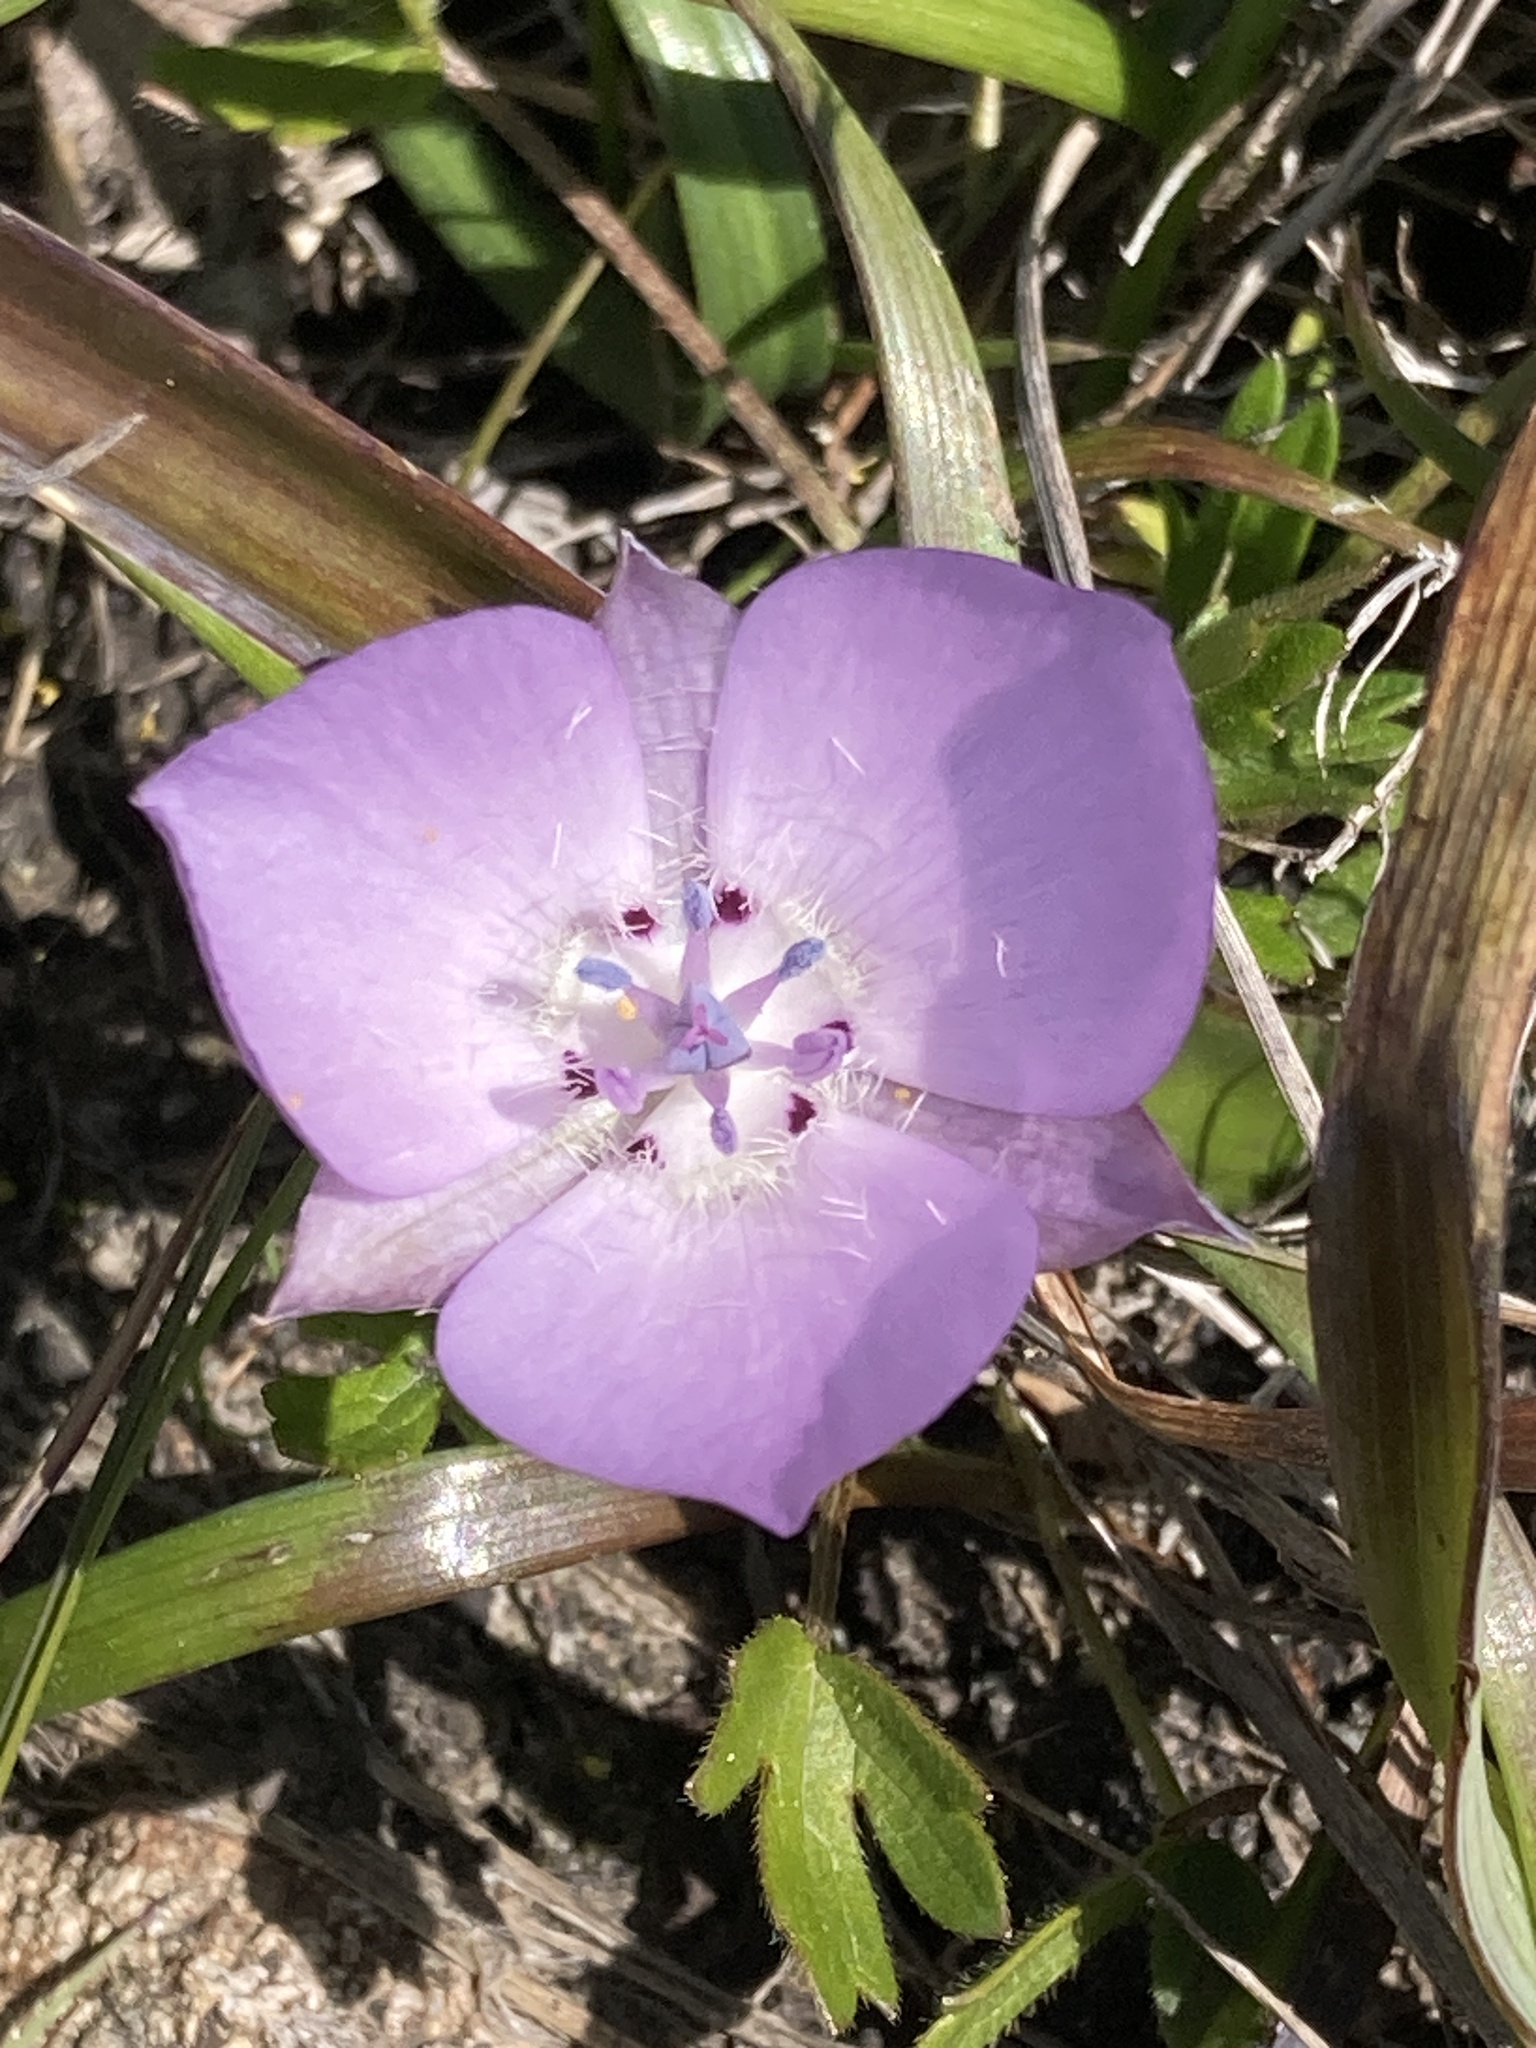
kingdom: Plantae
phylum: Tracheophyta
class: Liliopsida
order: Liliales
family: Liliaceae
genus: Calochortus
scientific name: Calochortus uniflorus
